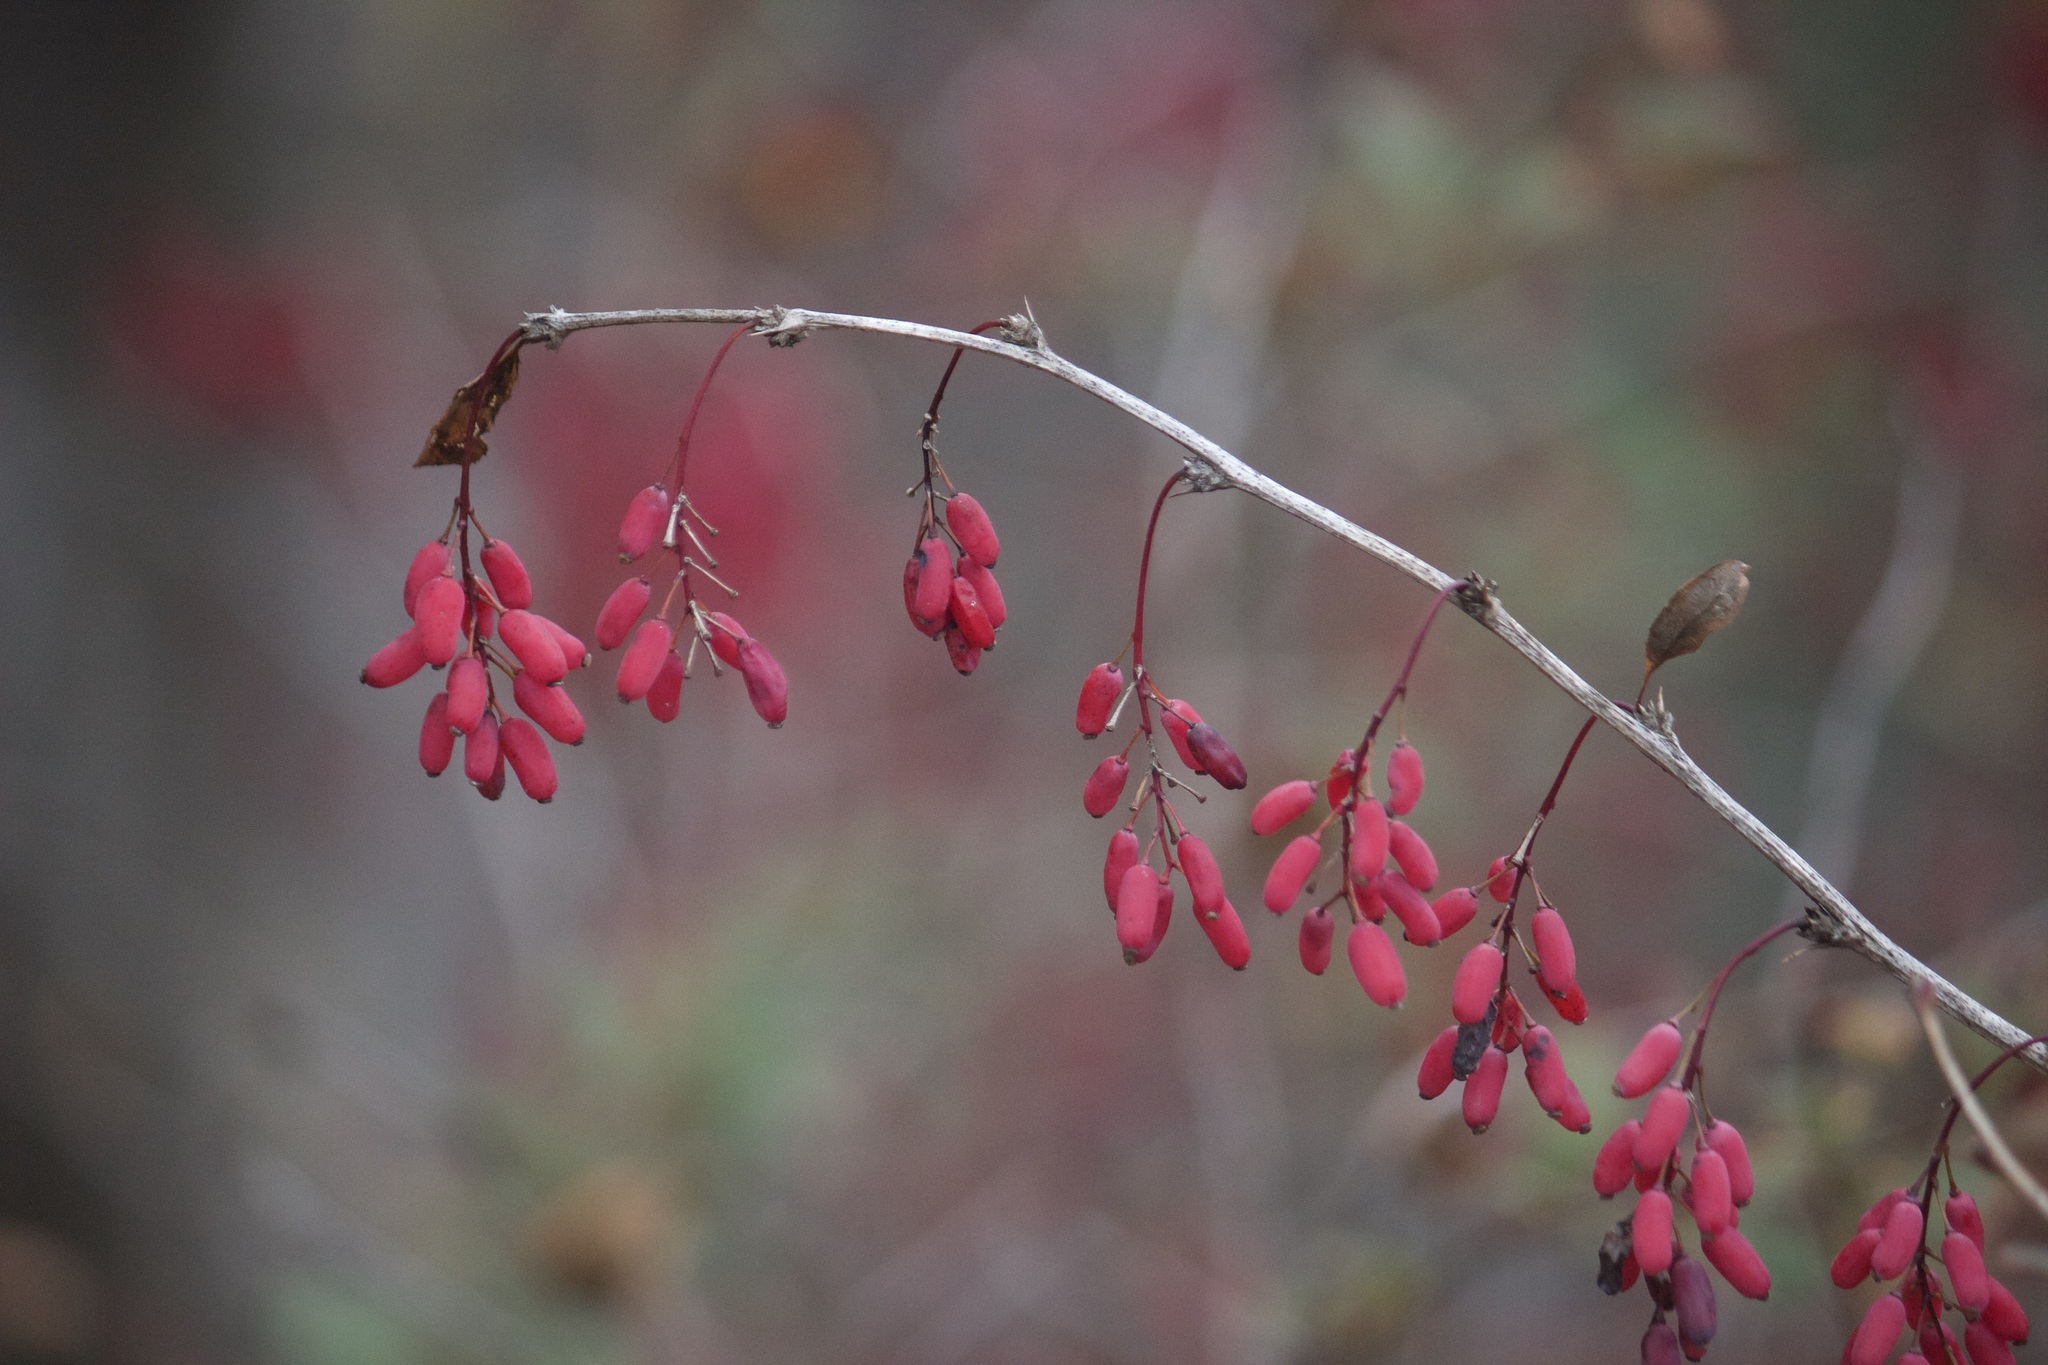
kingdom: Plantae
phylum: Tracheophyta
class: Magnoliopsida
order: Ranunculales
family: Berberidaceae
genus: Berberis
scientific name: Berberis vulgaris
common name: Barberry
